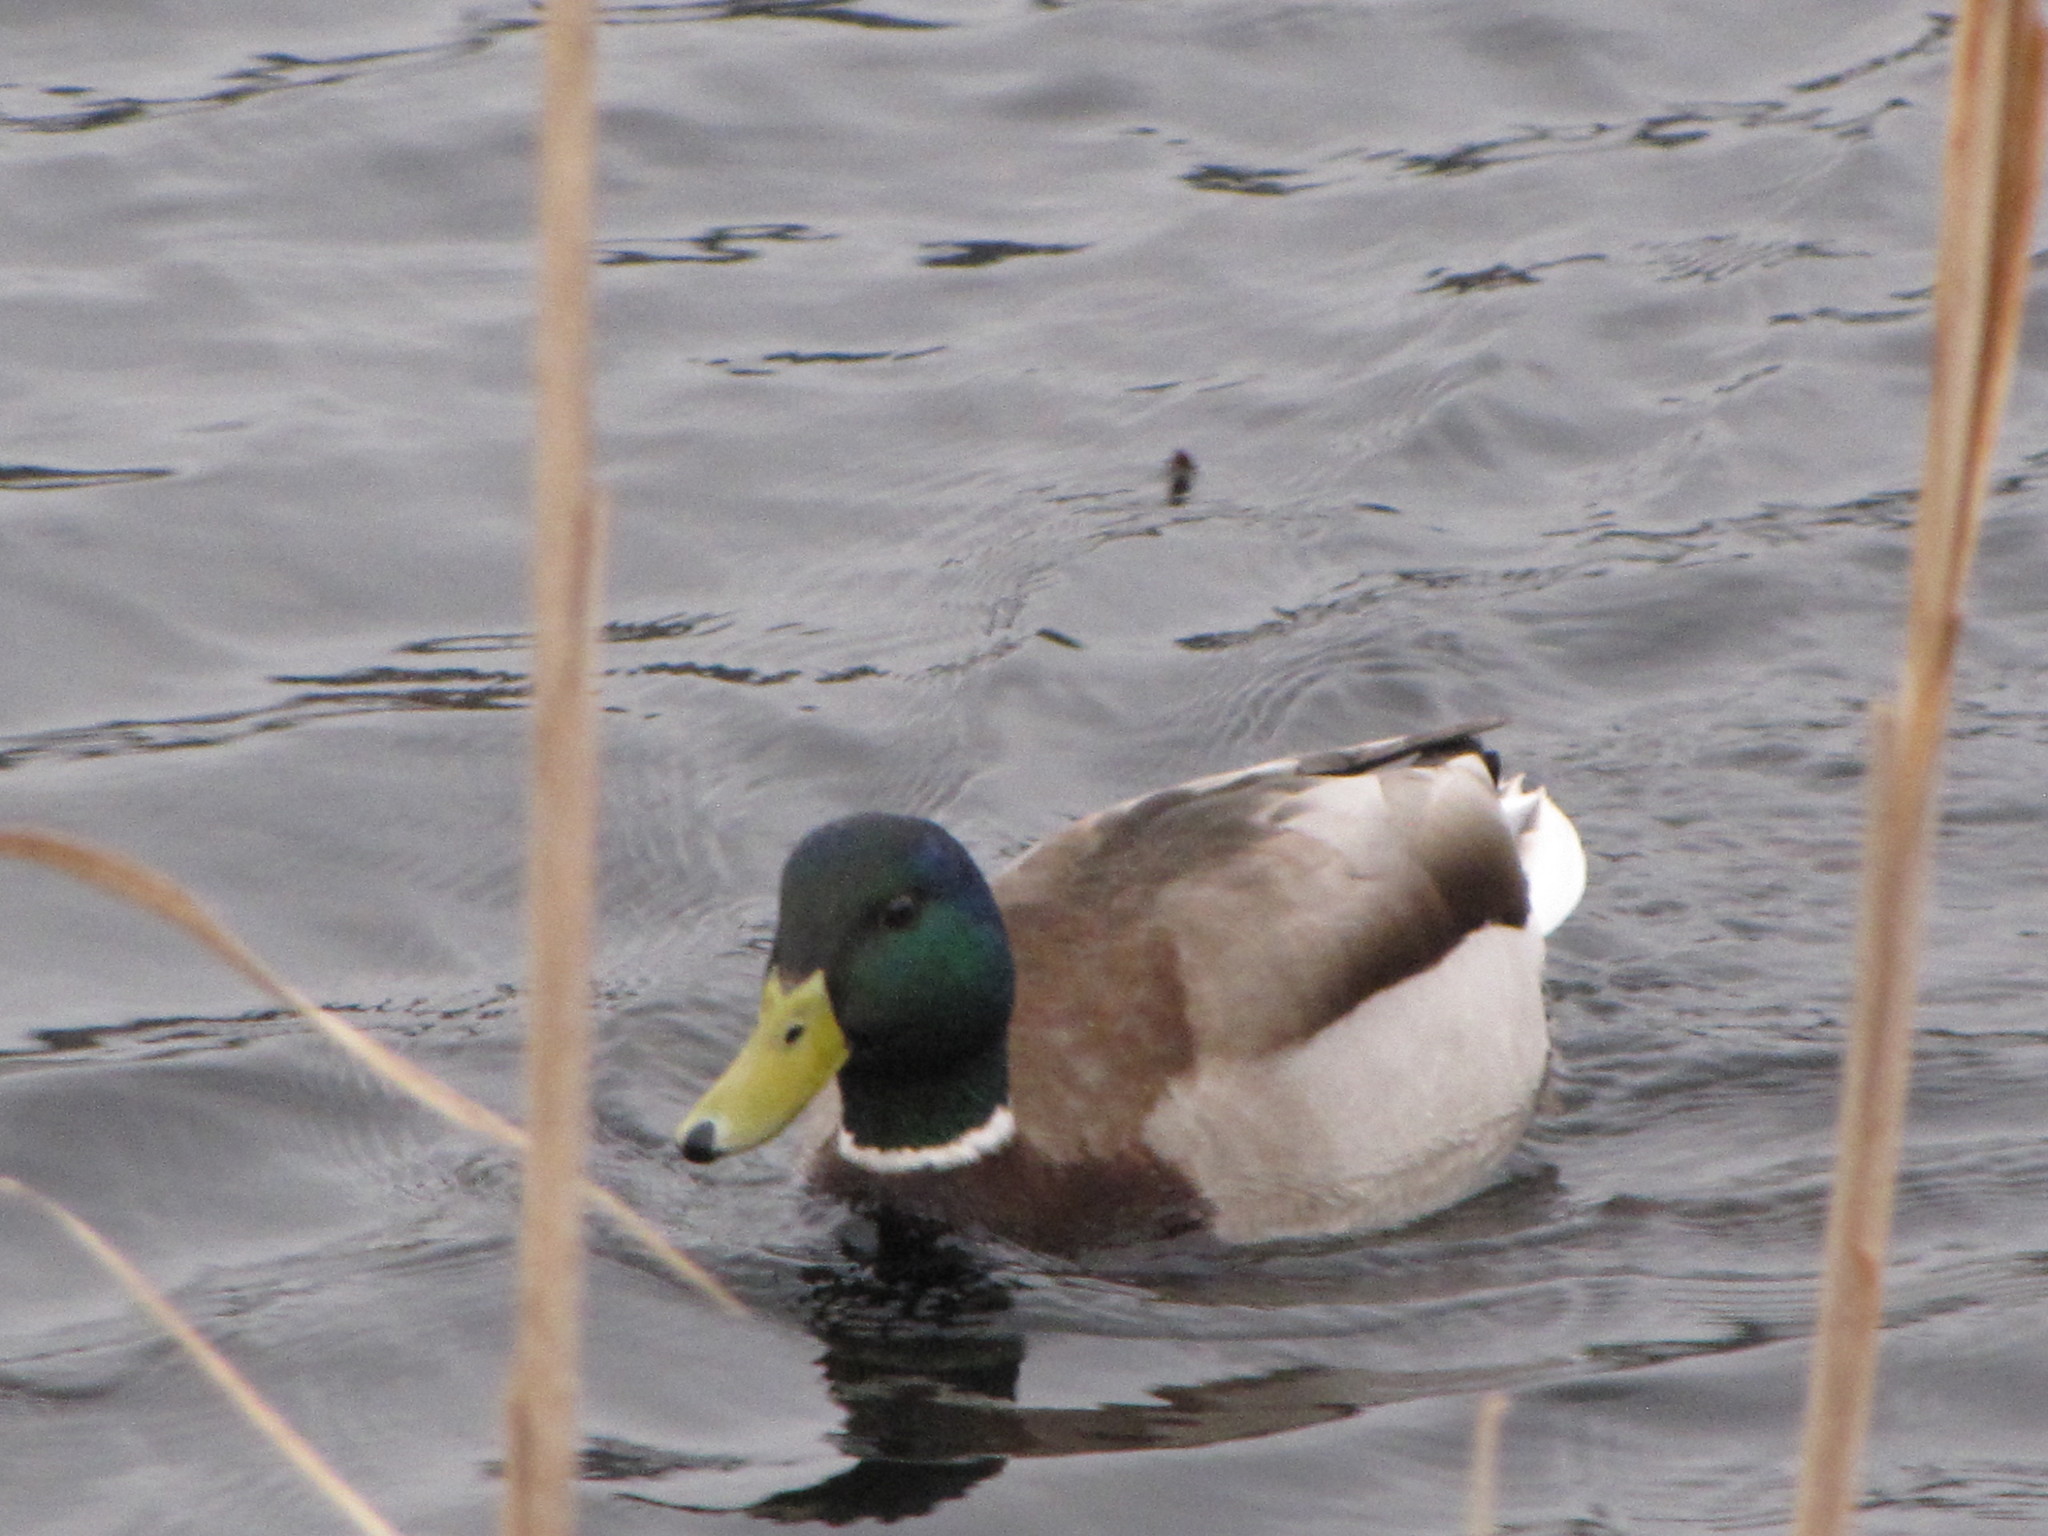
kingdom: Animalia
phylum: Chordata
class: Aves
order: Anseriformes
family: Anatidae
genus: Anas
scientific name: Anas platyrhynchos
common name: Mallard
